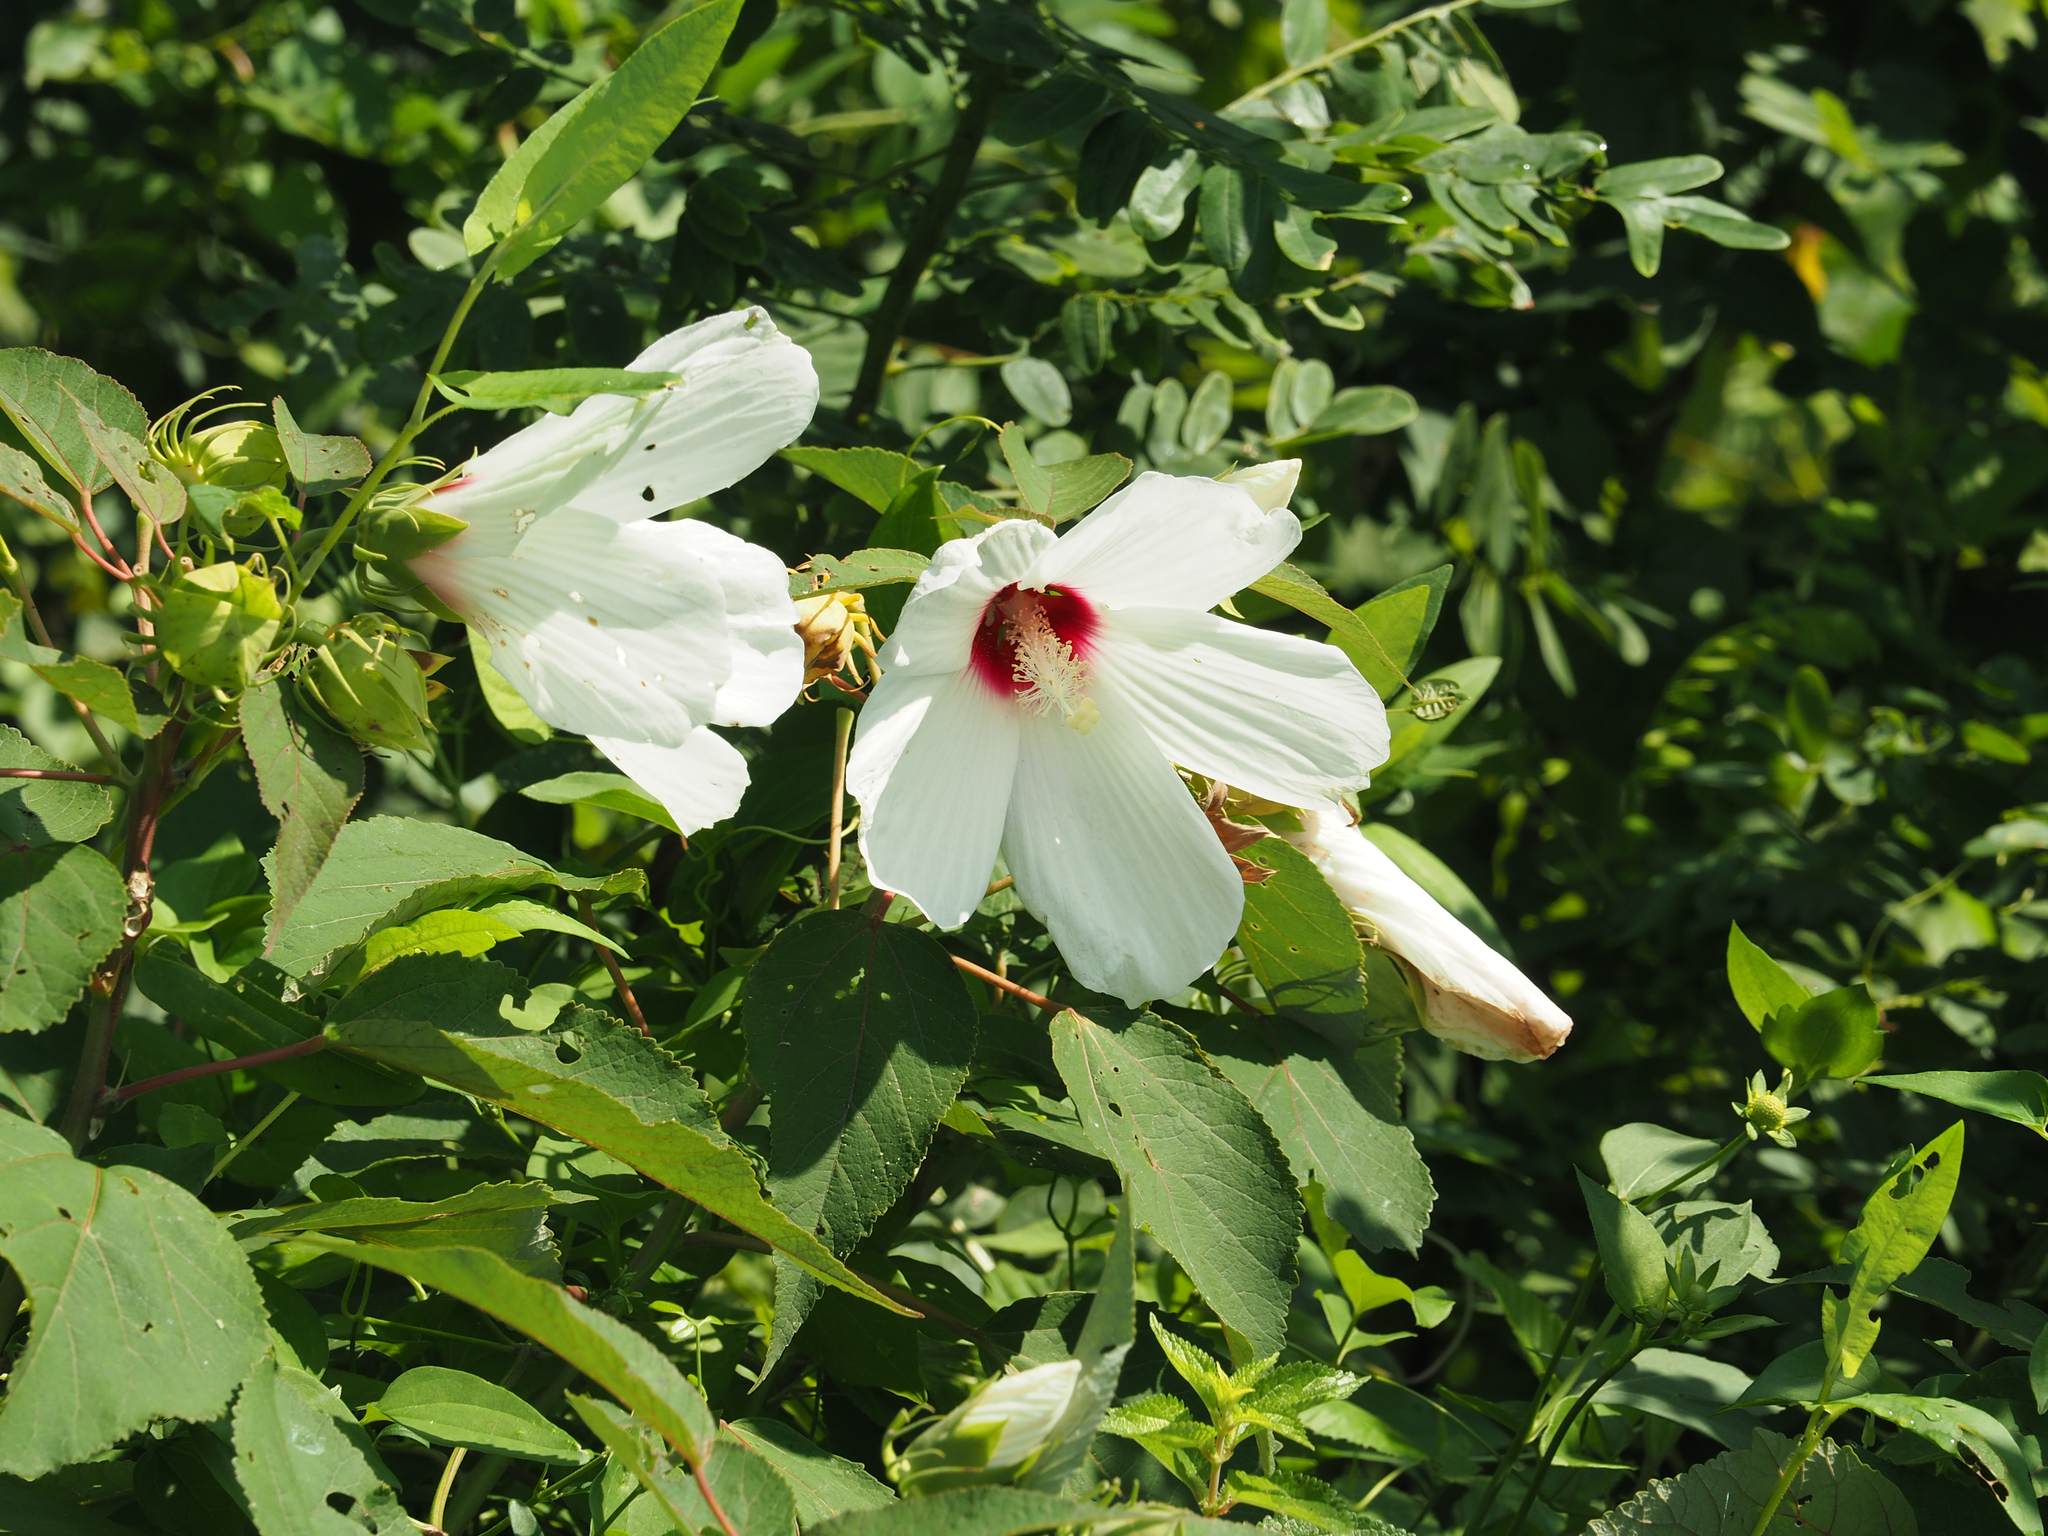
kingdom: Plantae
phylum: Tracheophyta
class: Magnoliopsida
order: Malvales
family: Malvaceae
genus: Hibiscus
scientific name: Hibiscus moscheutos
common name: Common rose-mallow
